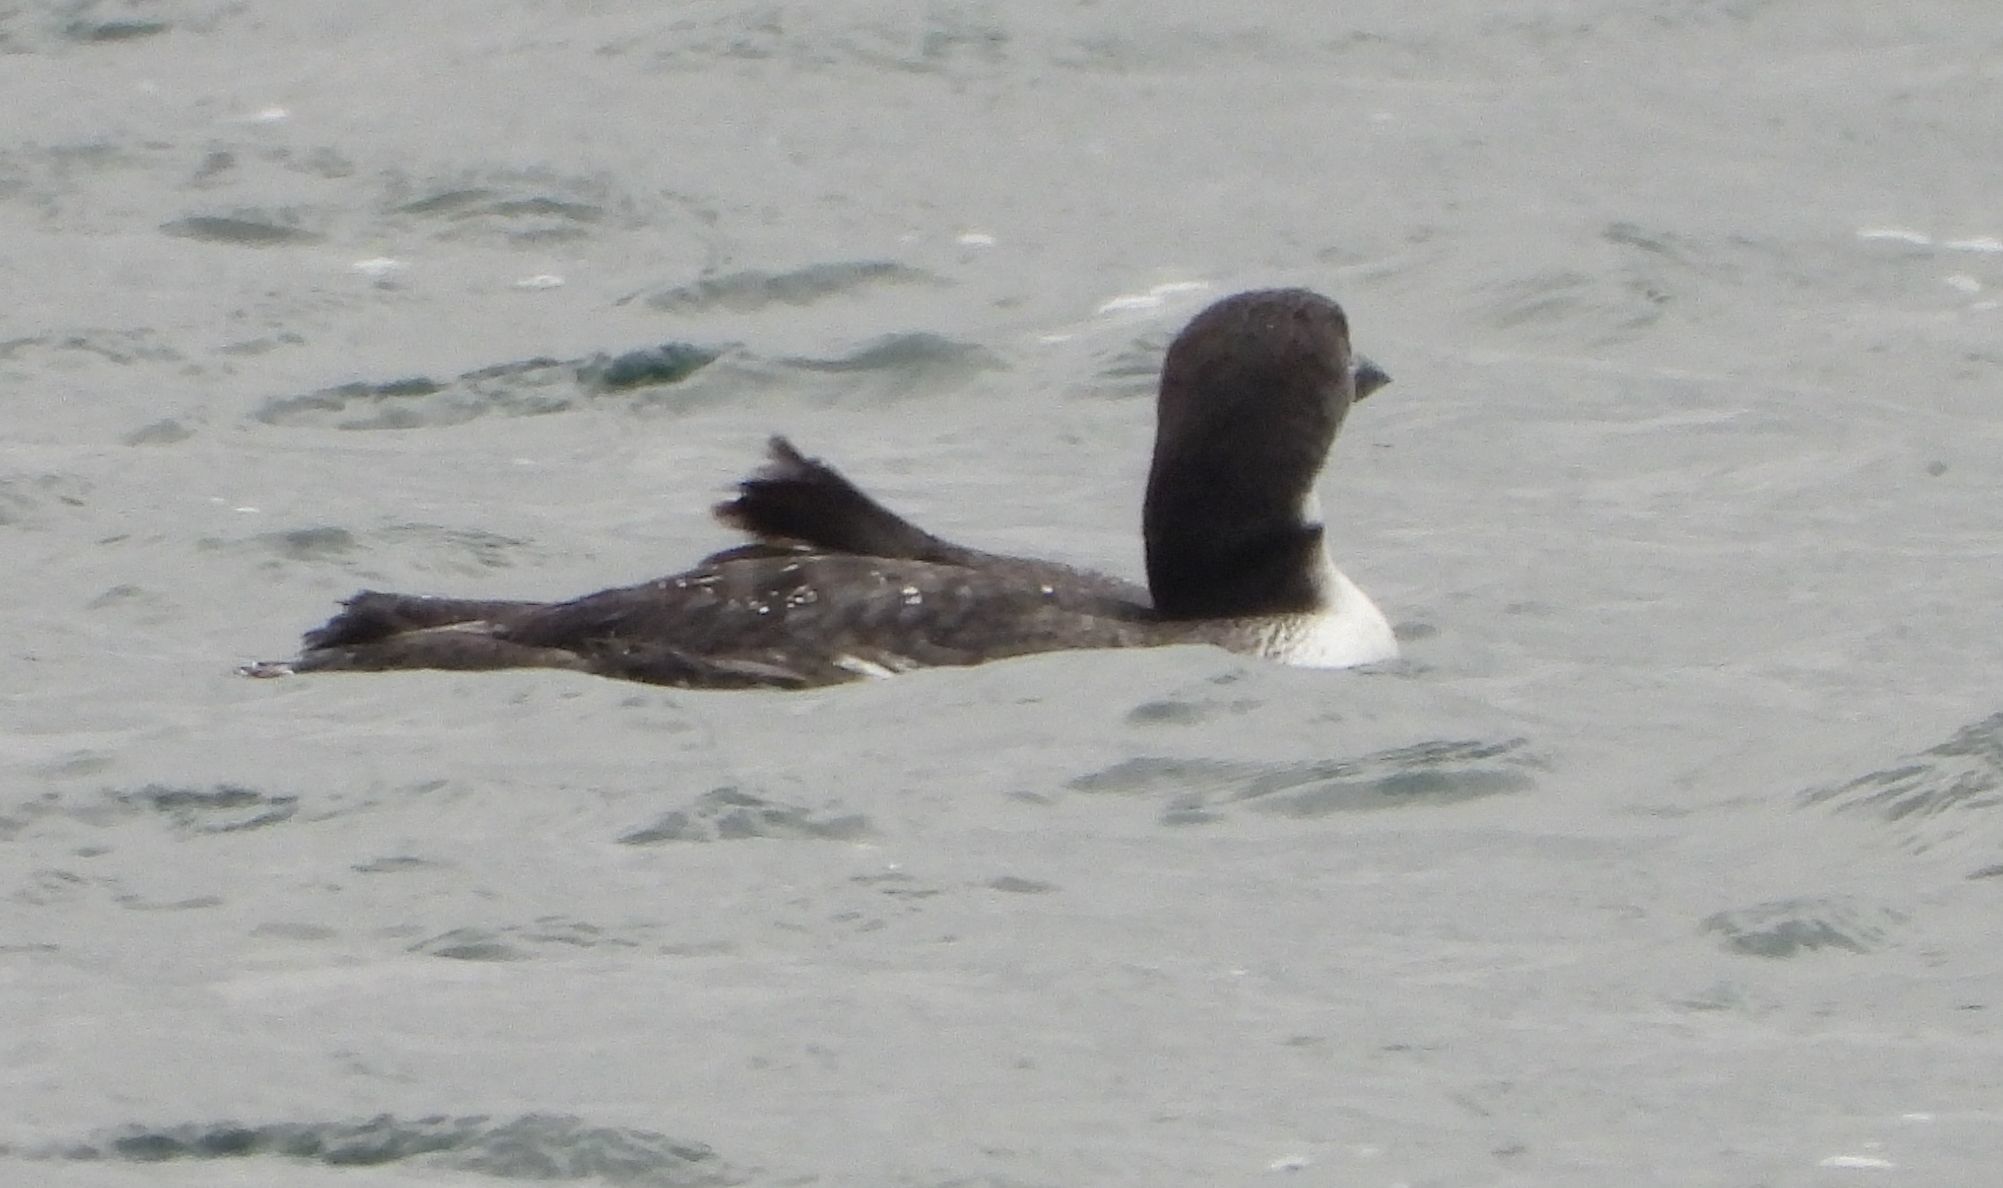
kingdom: Animalia
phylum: Chordata
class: Aves
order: Gaviiformes
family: Gaviidae
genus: Gavia
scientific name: Gavia immer
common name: Common loon
